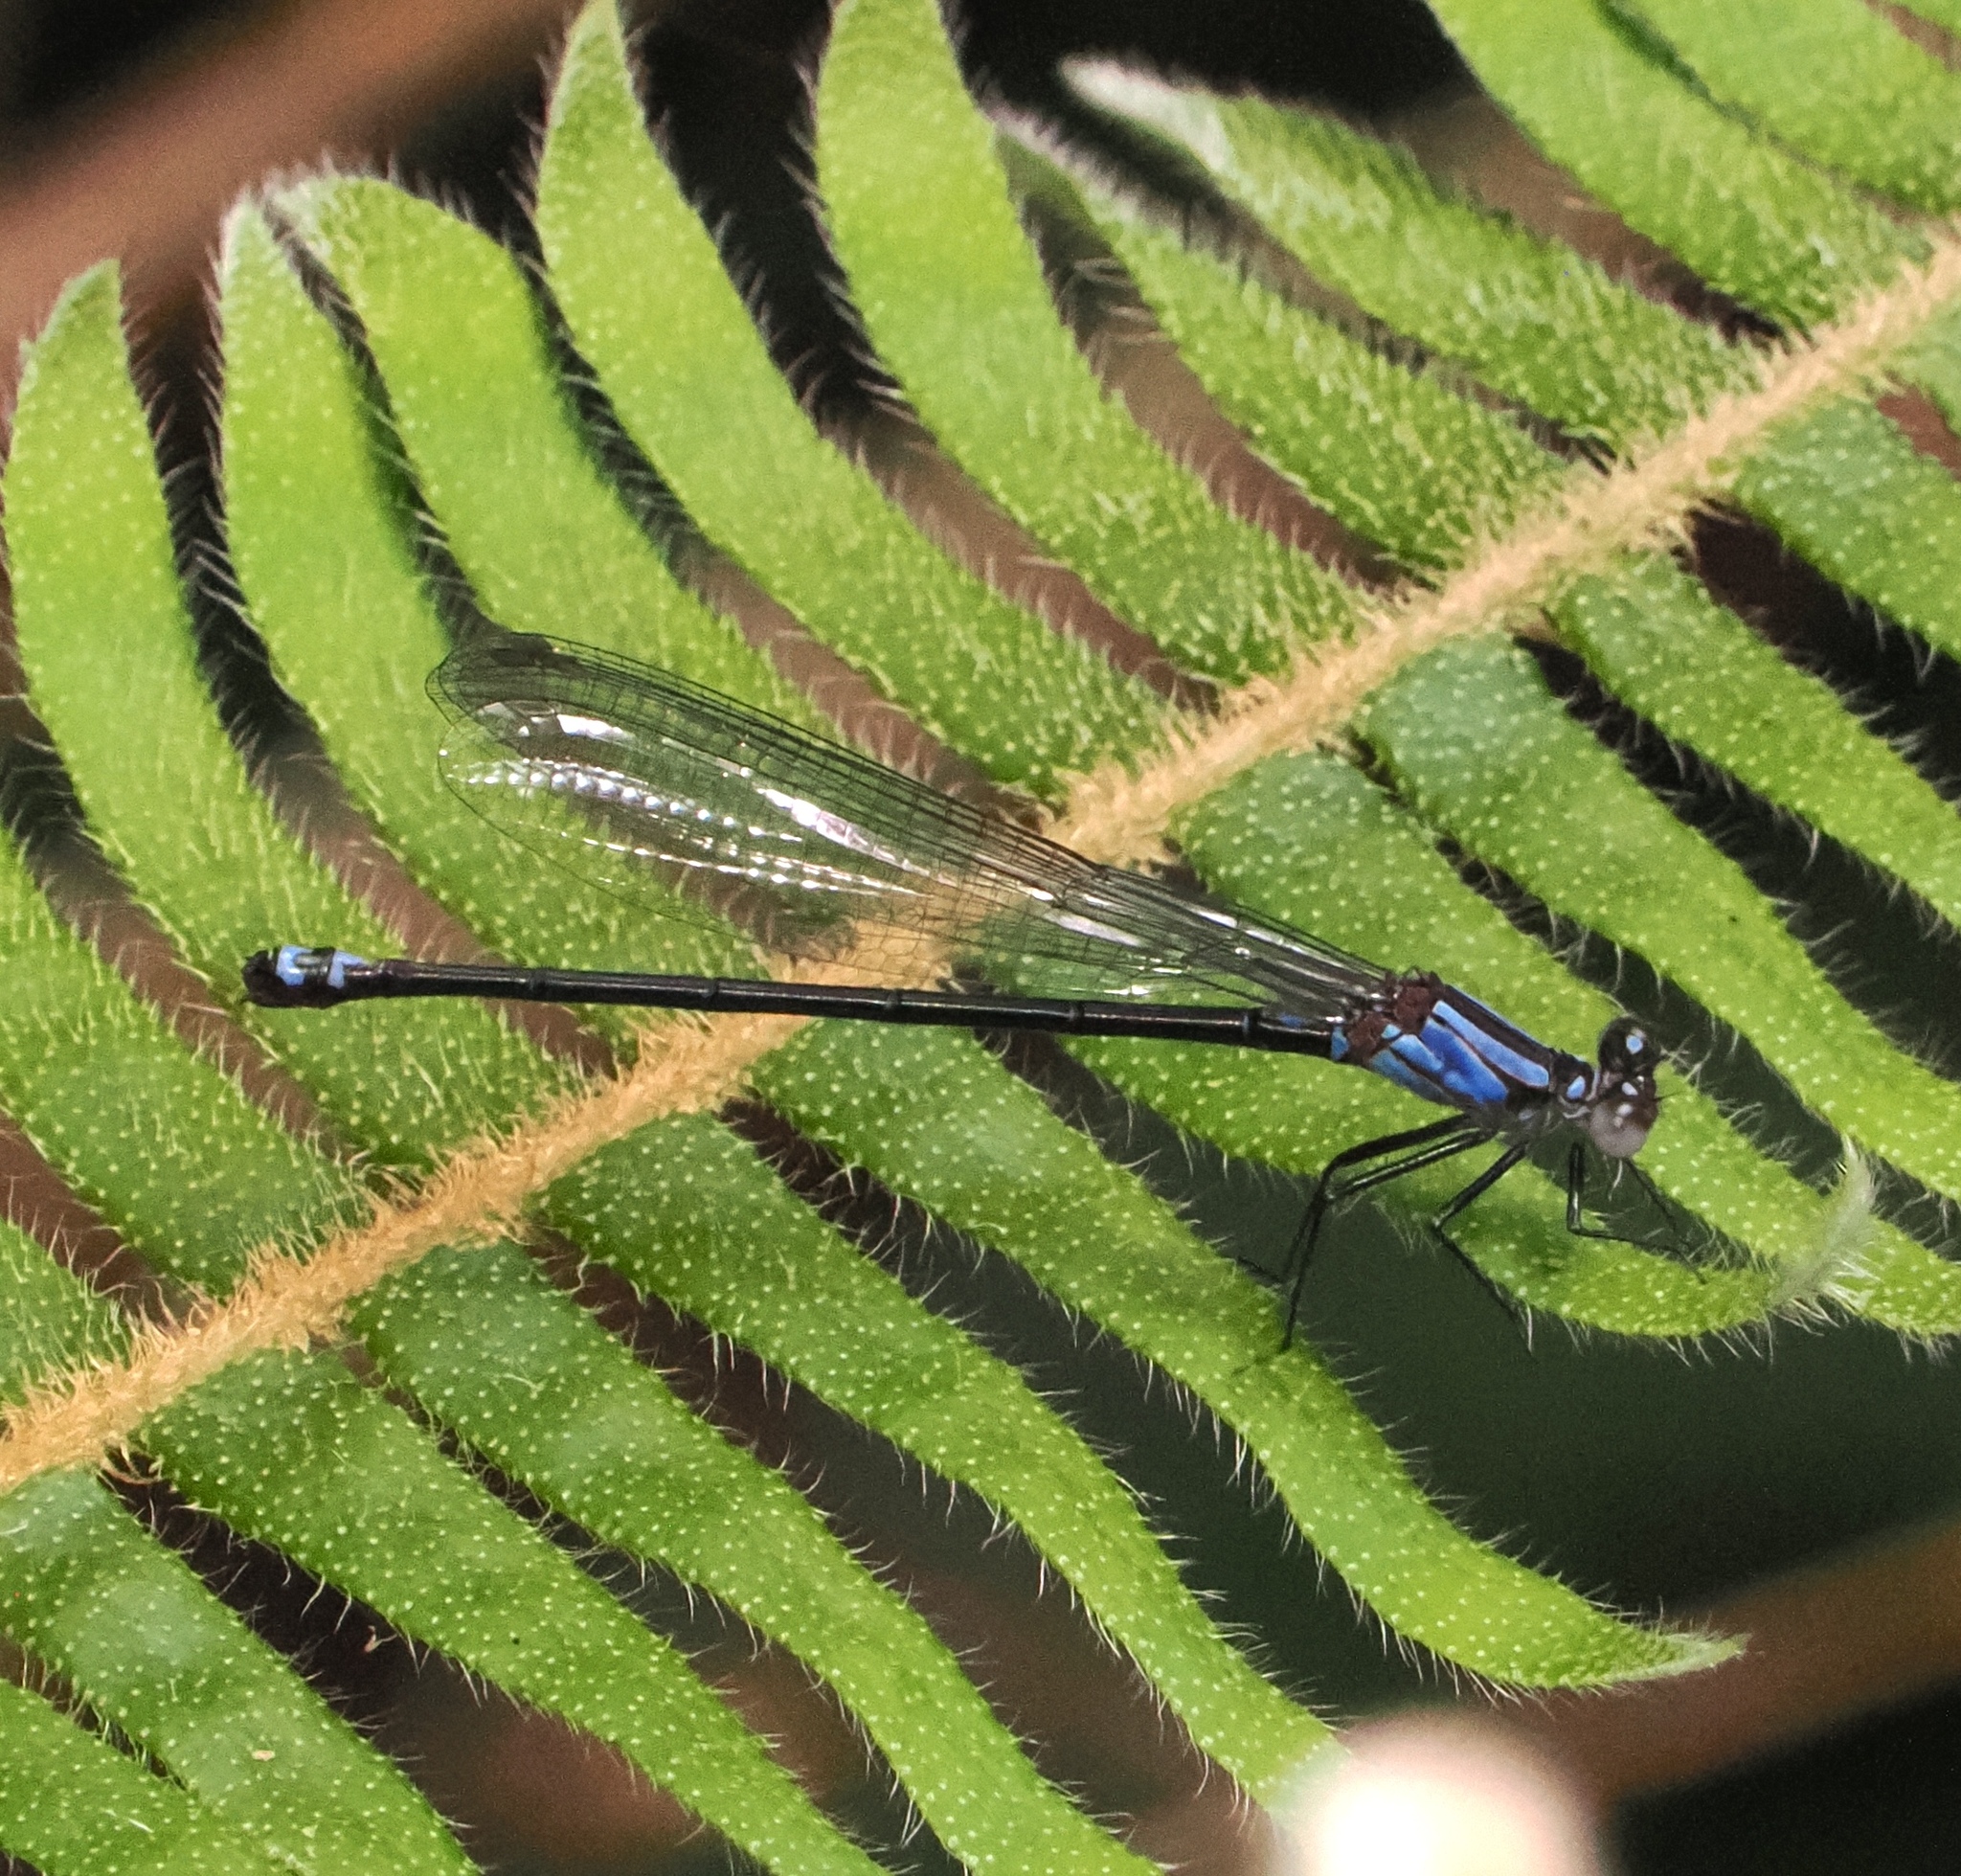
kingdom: Animalia
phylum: Arthropoda
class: Insecta
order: Odonata
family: Coenagrionidae
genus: Argia
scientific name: Argia sordida
